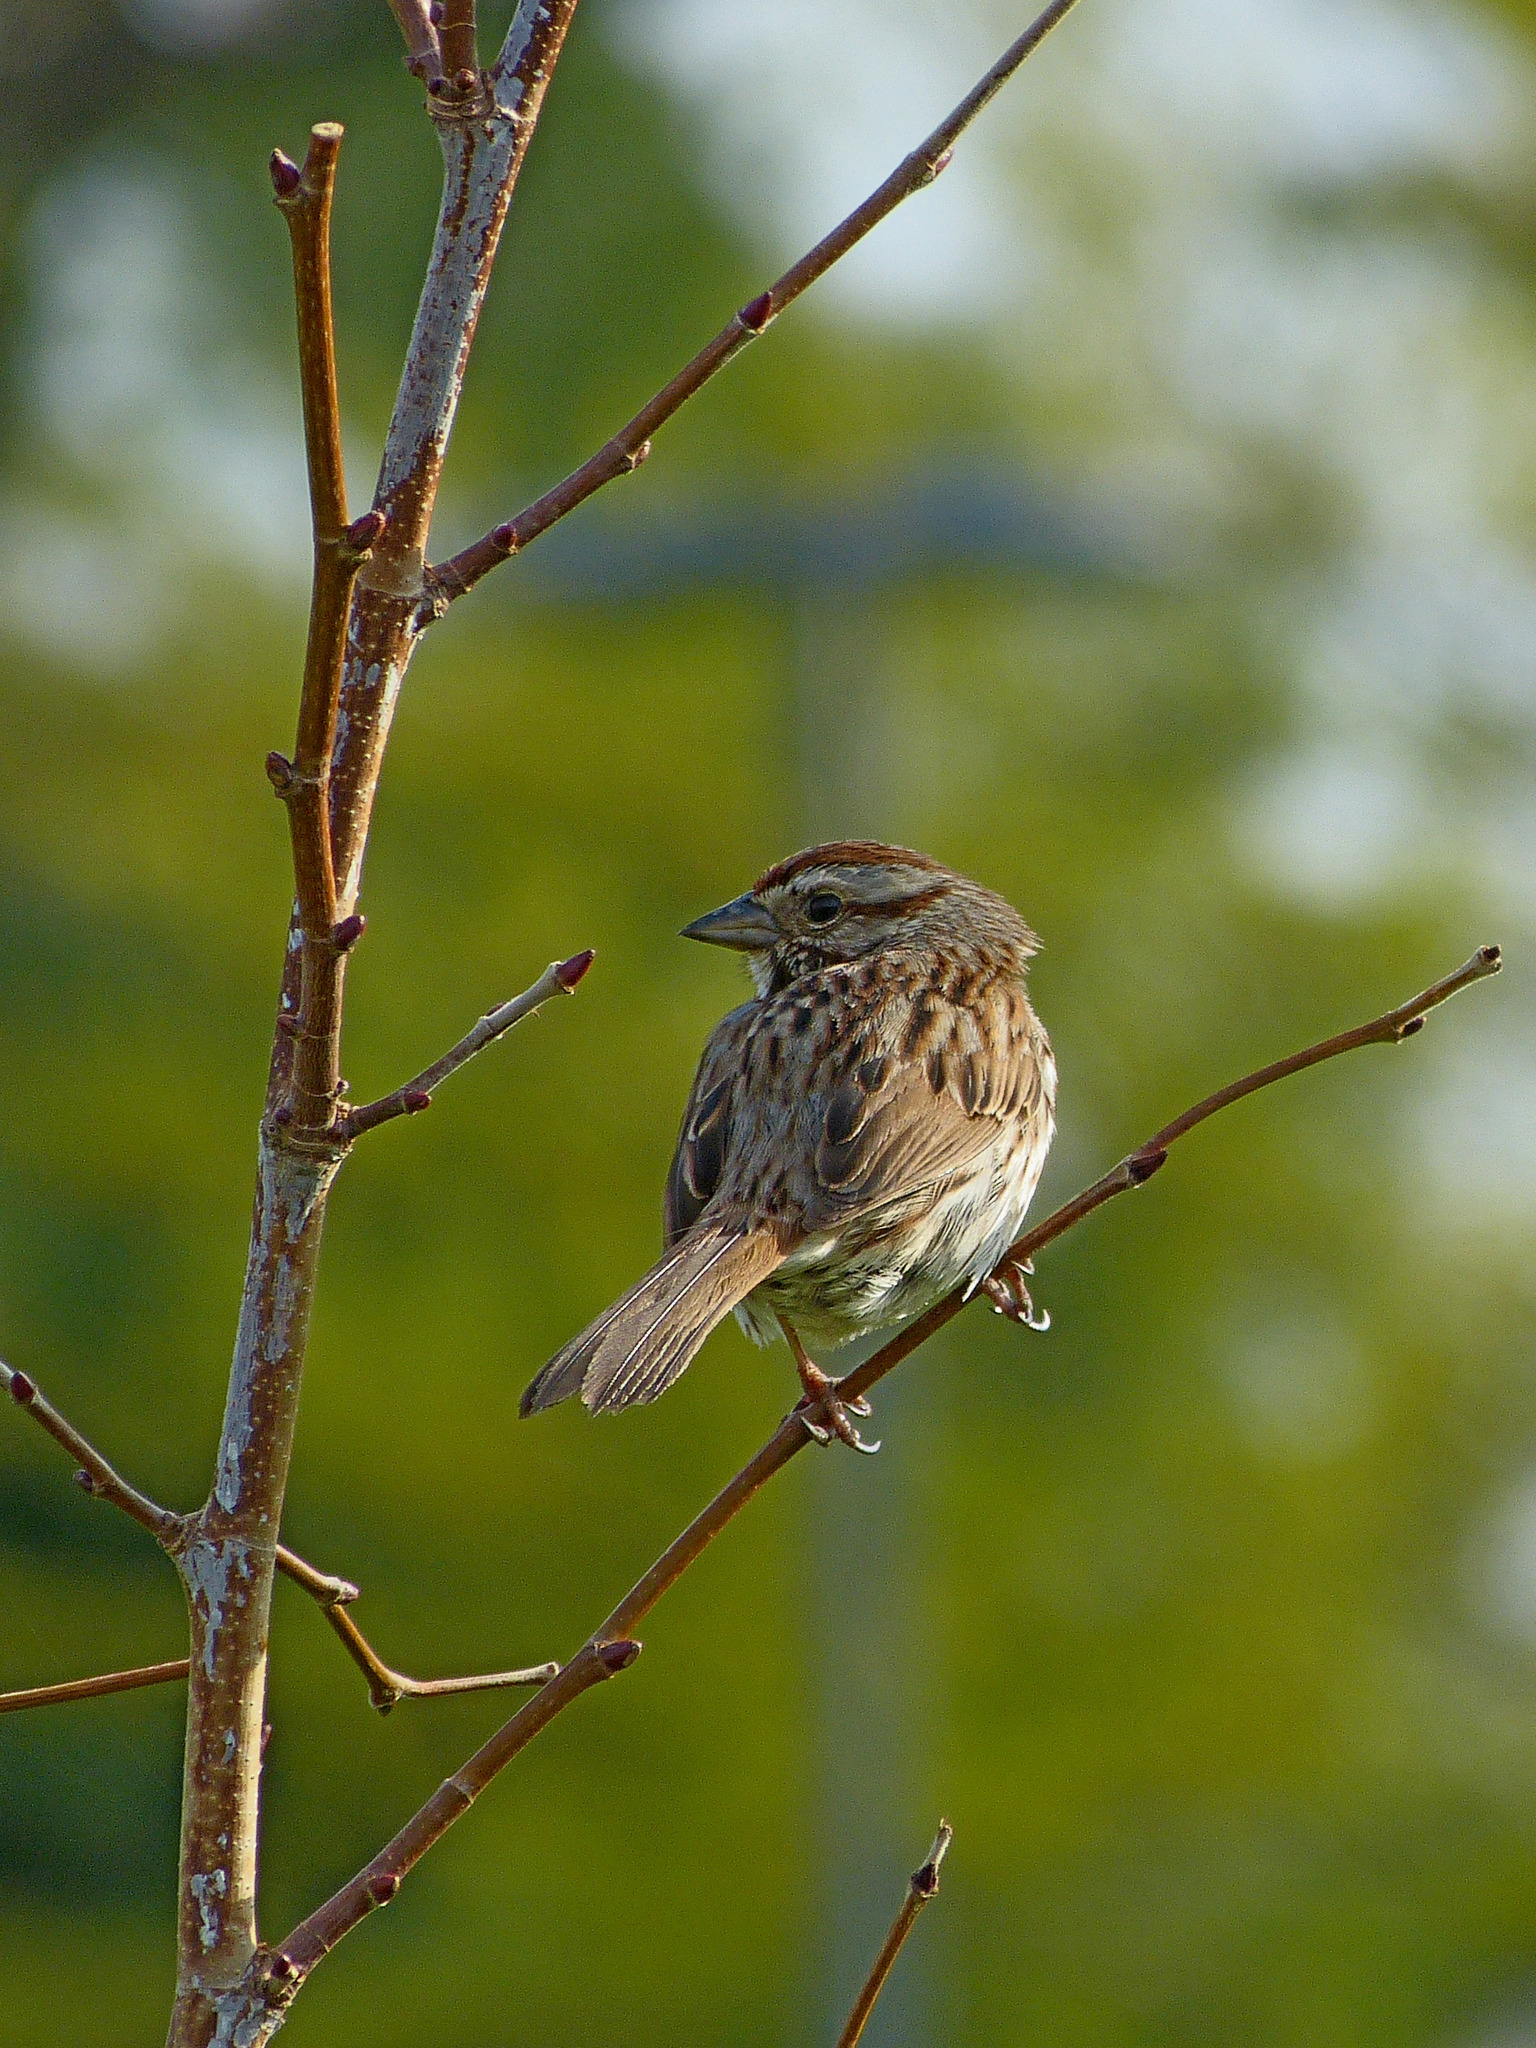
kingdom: Animalia
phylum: Chordata
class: Aves
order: Passeriformes
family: Passerellidae
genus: Melospiza
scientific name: Melospiza melodia
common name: Song sparrow
